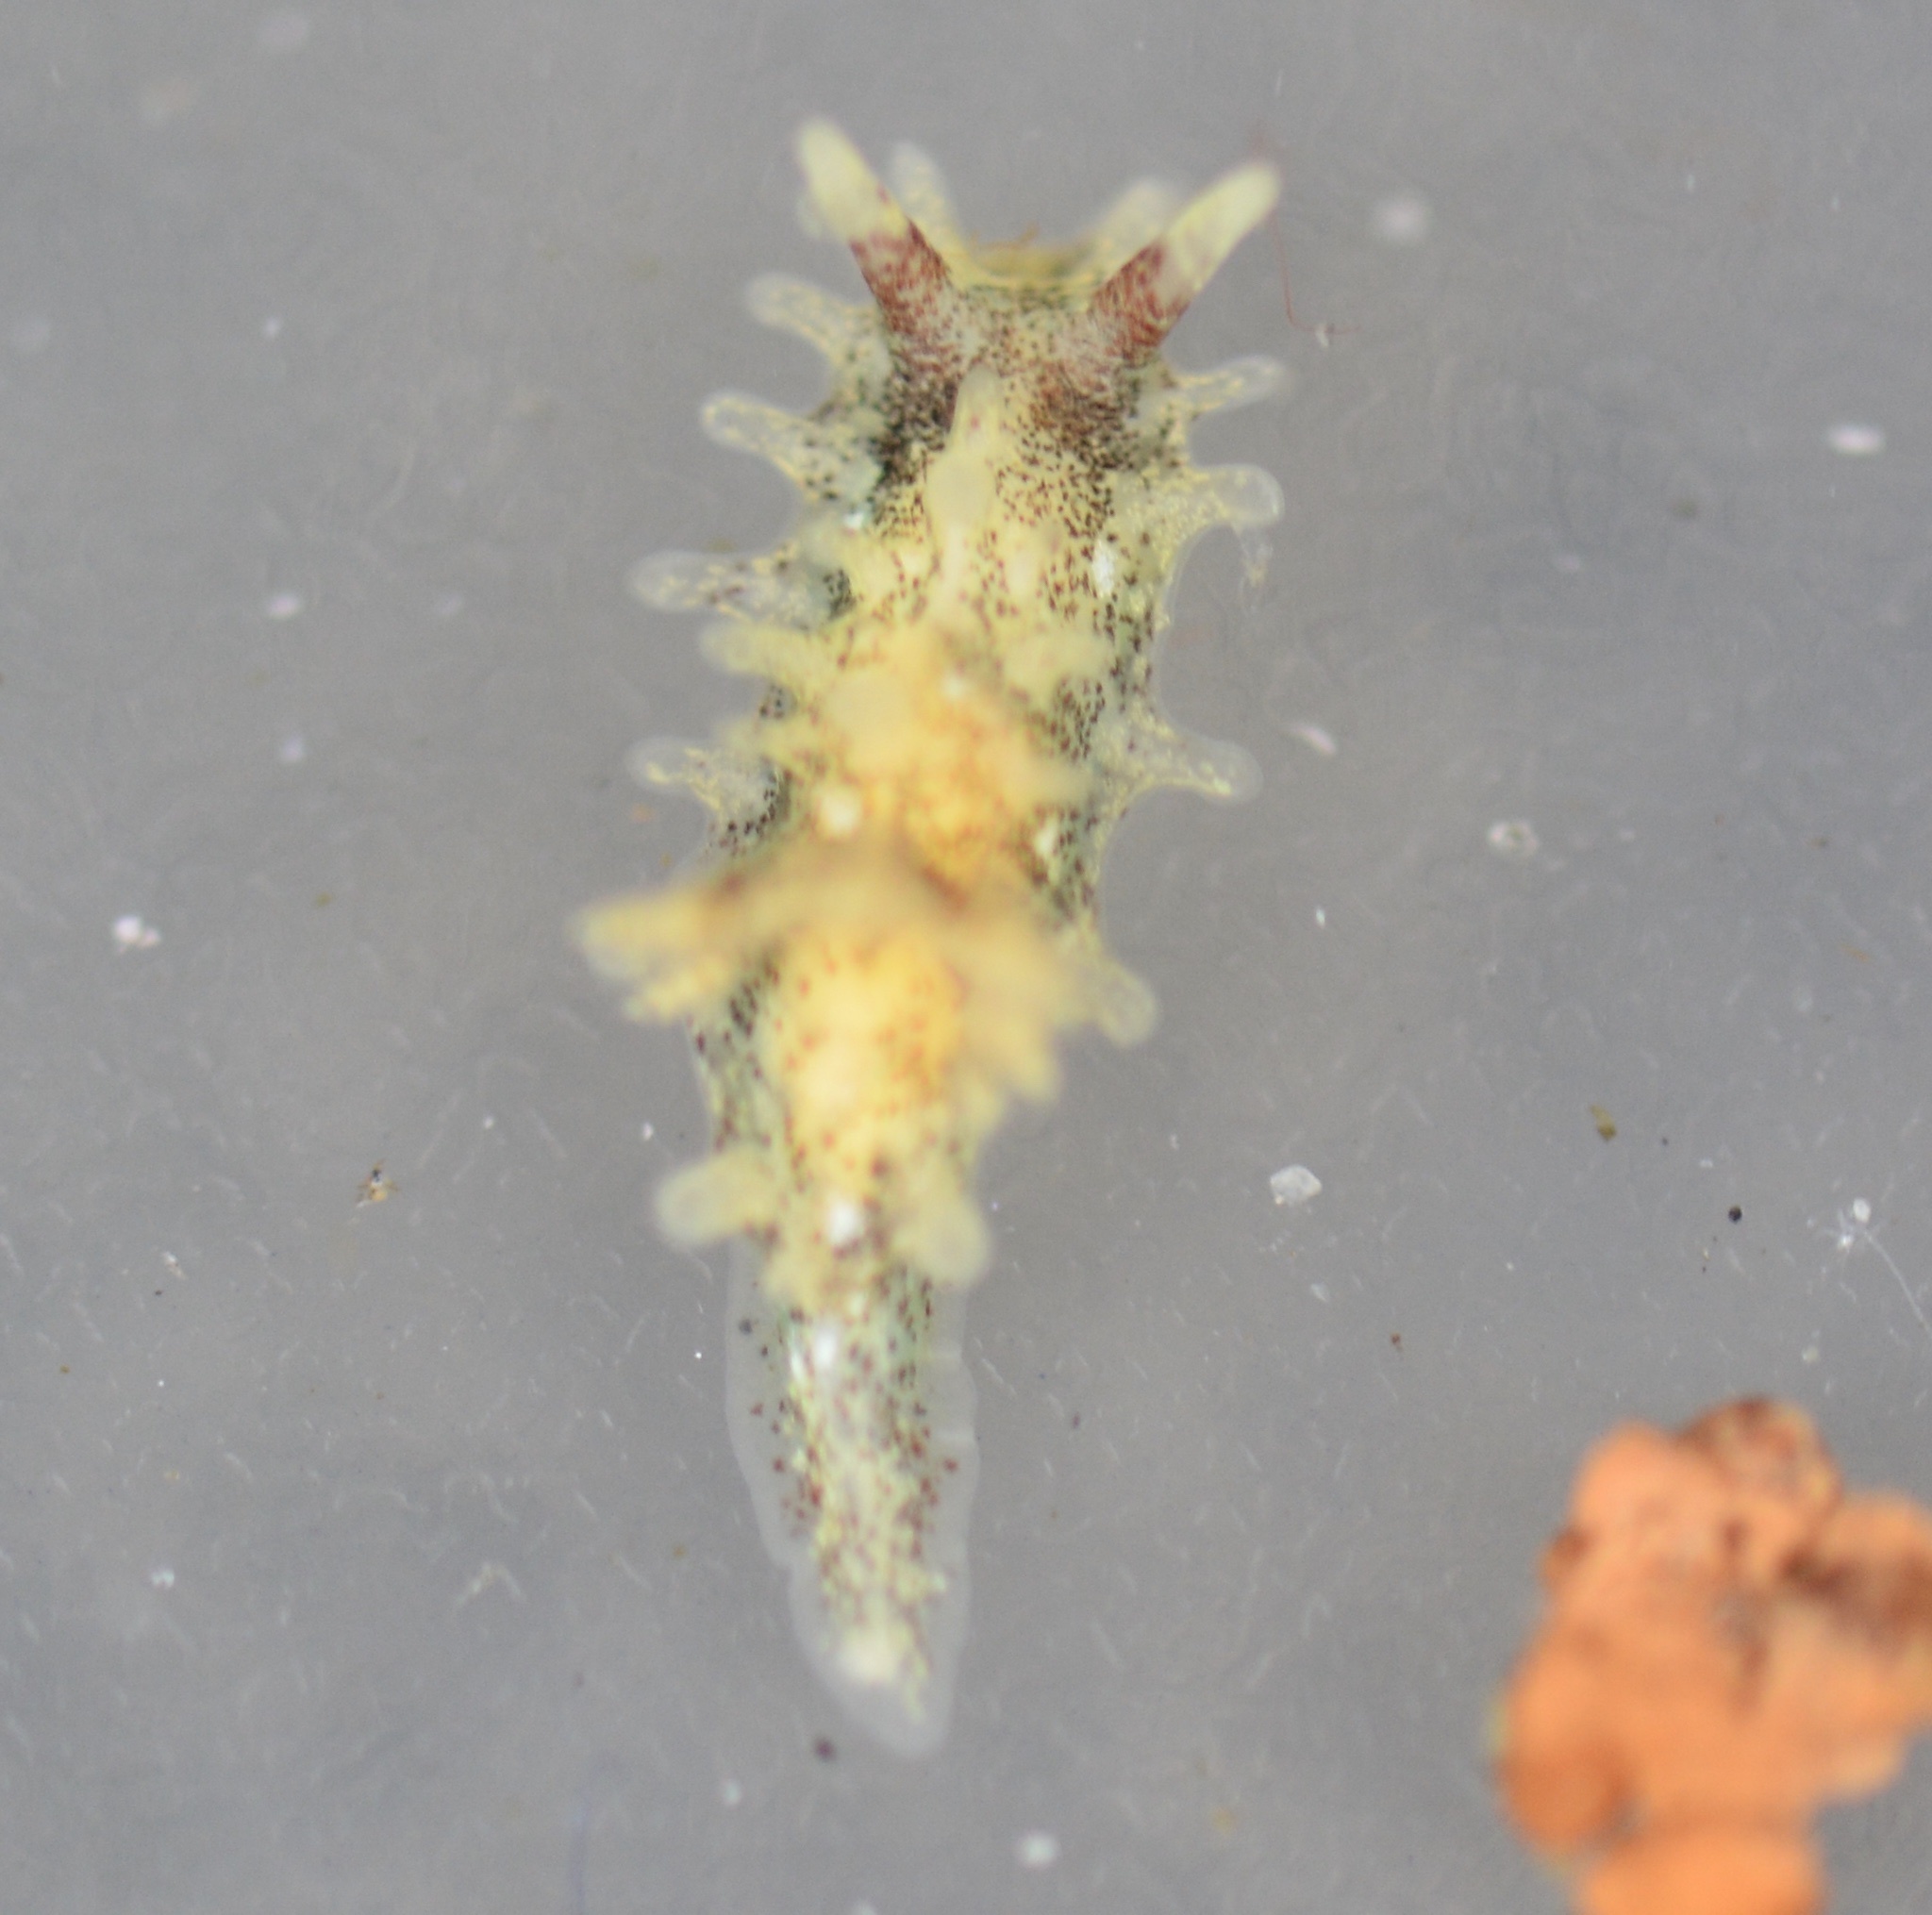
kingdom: Animalia
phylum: Mollusca
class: Gastropoda
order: Nudibranchia
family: Goniodorididae
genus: Okenia
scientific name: Okenia
